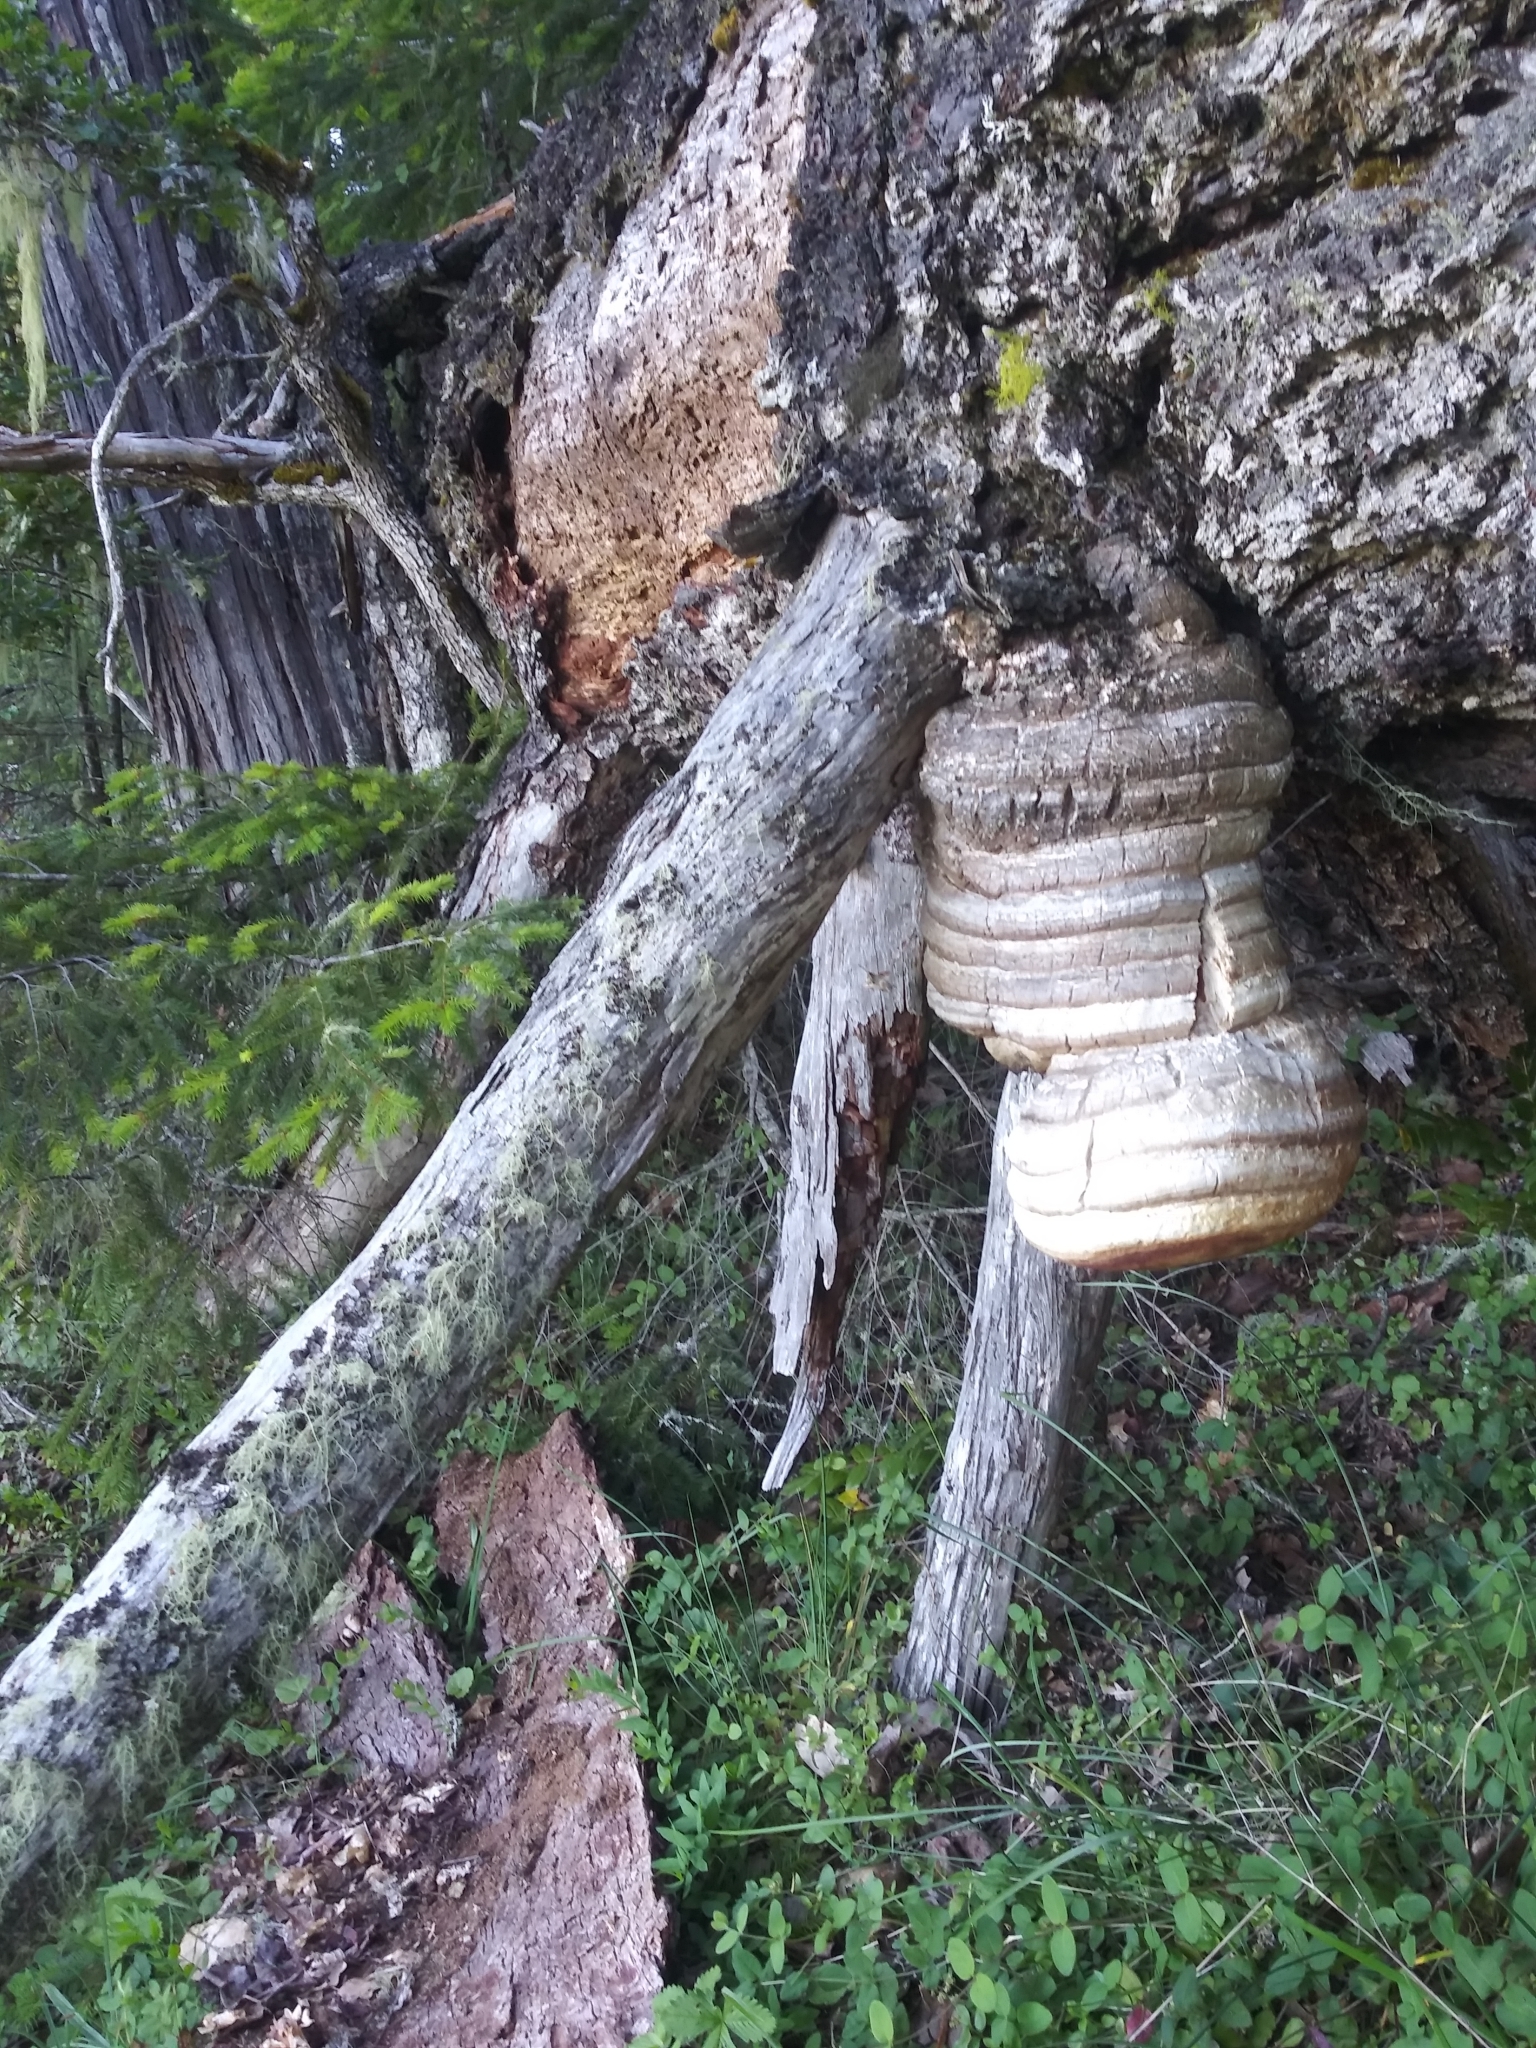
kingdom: Fungi
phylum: Basidiomycota
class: Agaricomycetes
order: Polyporales
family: Fomitopsidaceae
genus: Fomitopsis
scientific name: Fomitopsis officinalis
